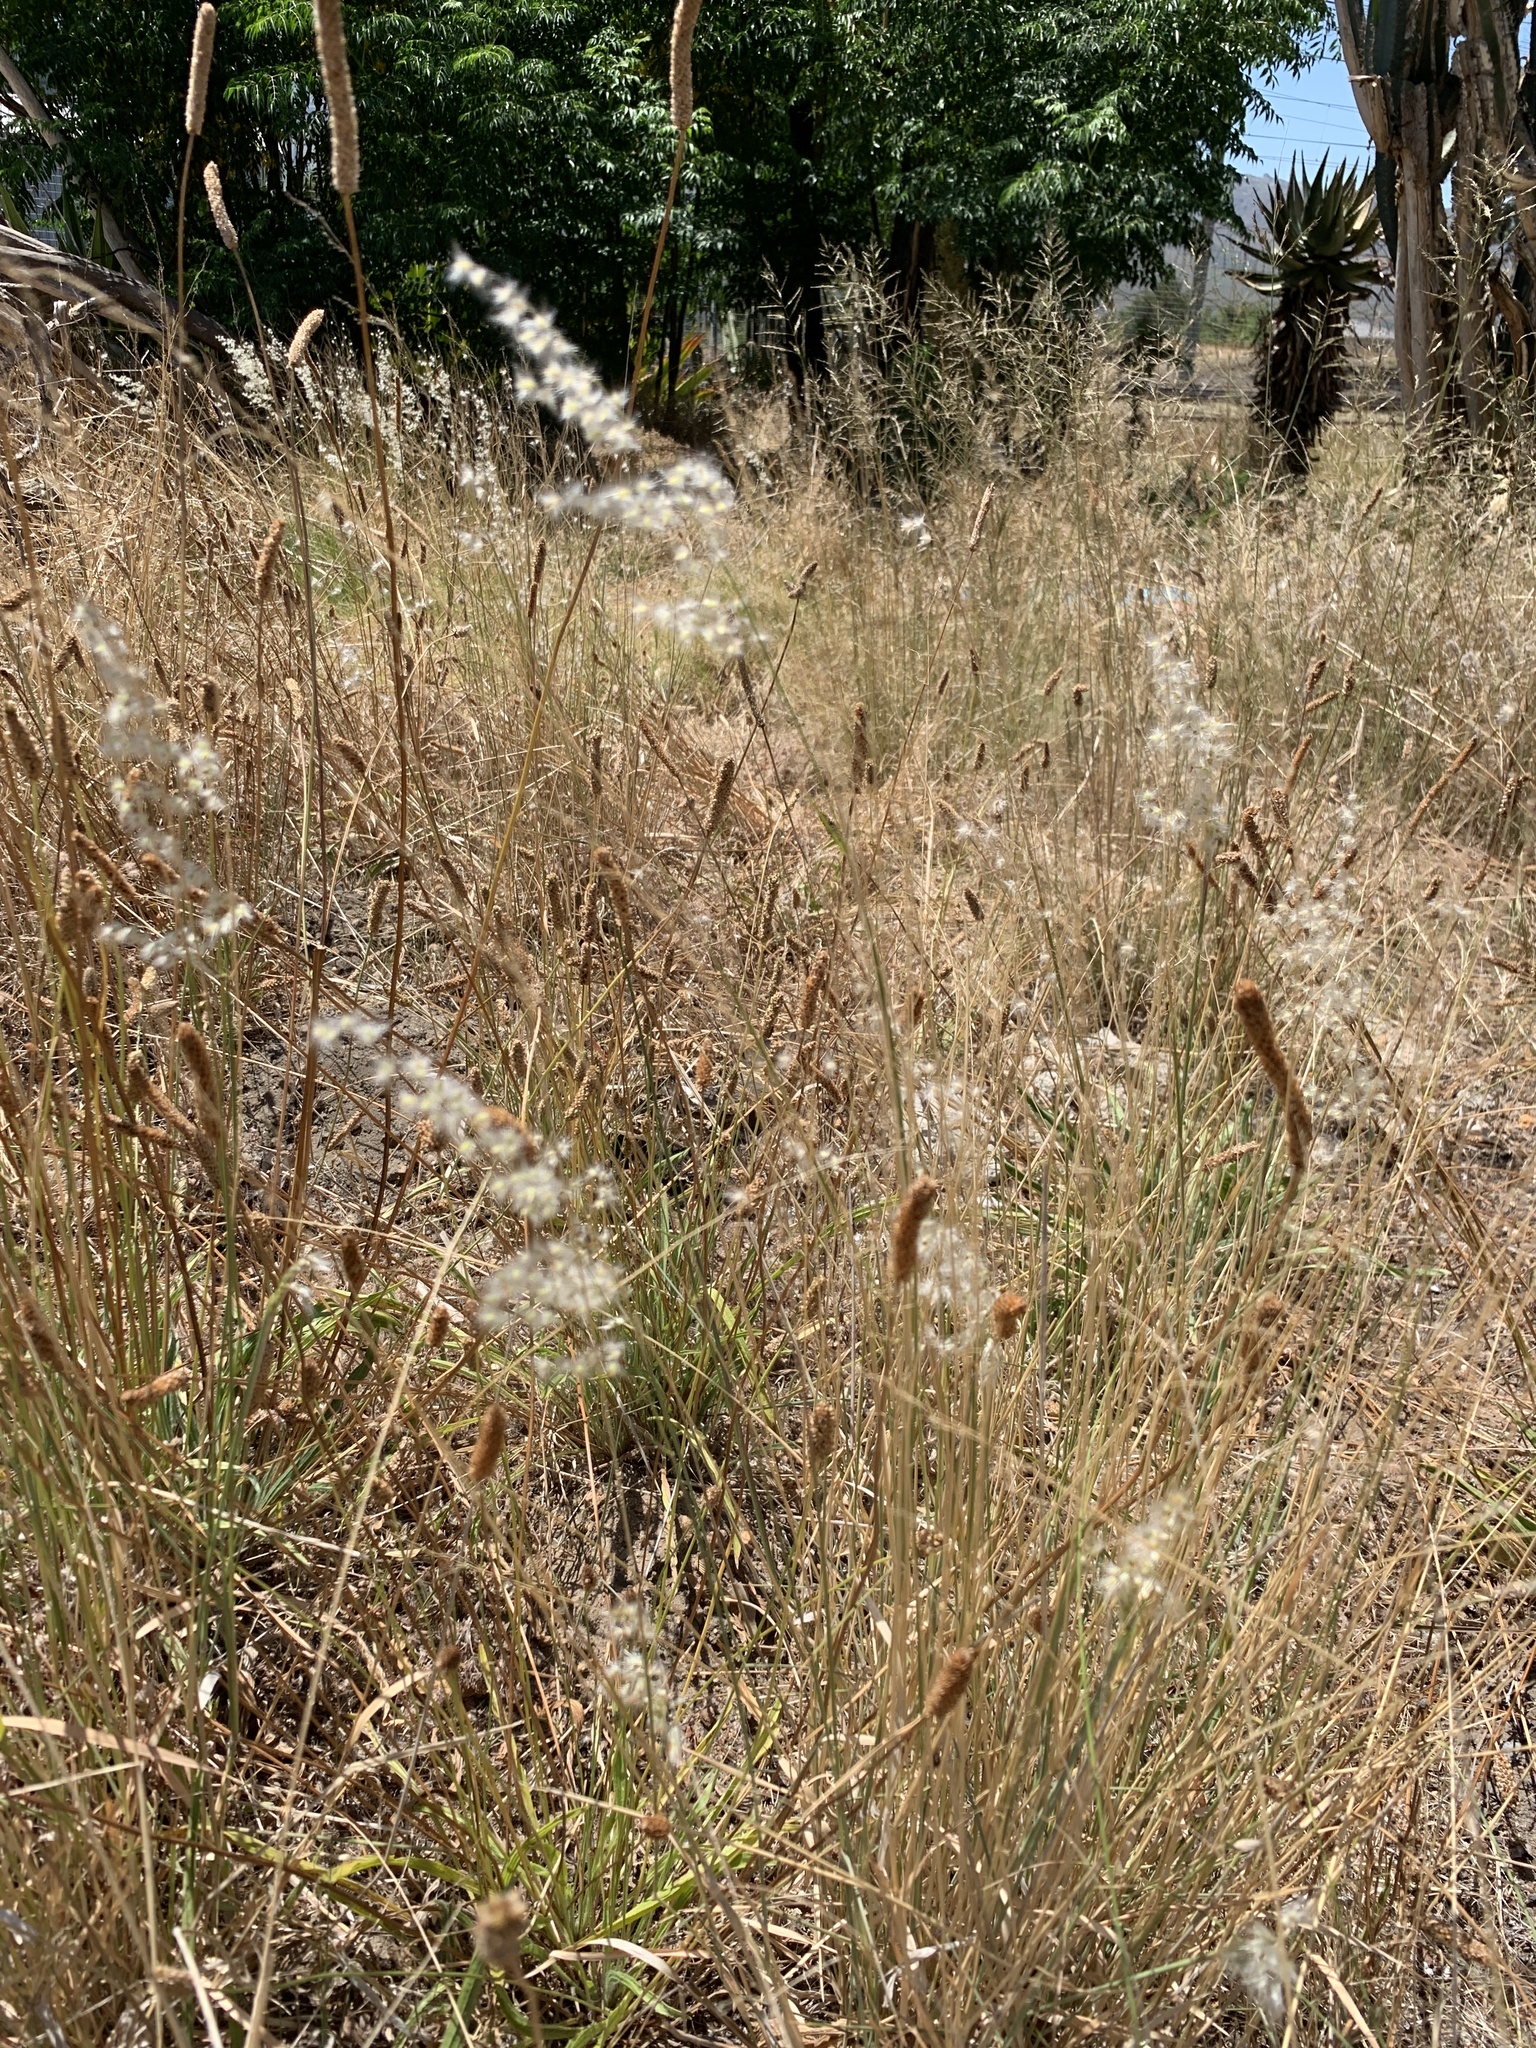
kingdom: Plantae
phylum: Tracheophyta
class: Liliopsida
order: Poales
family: Poaceae
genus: Melinis
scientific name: Melinis repens
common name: Rose natal grass
